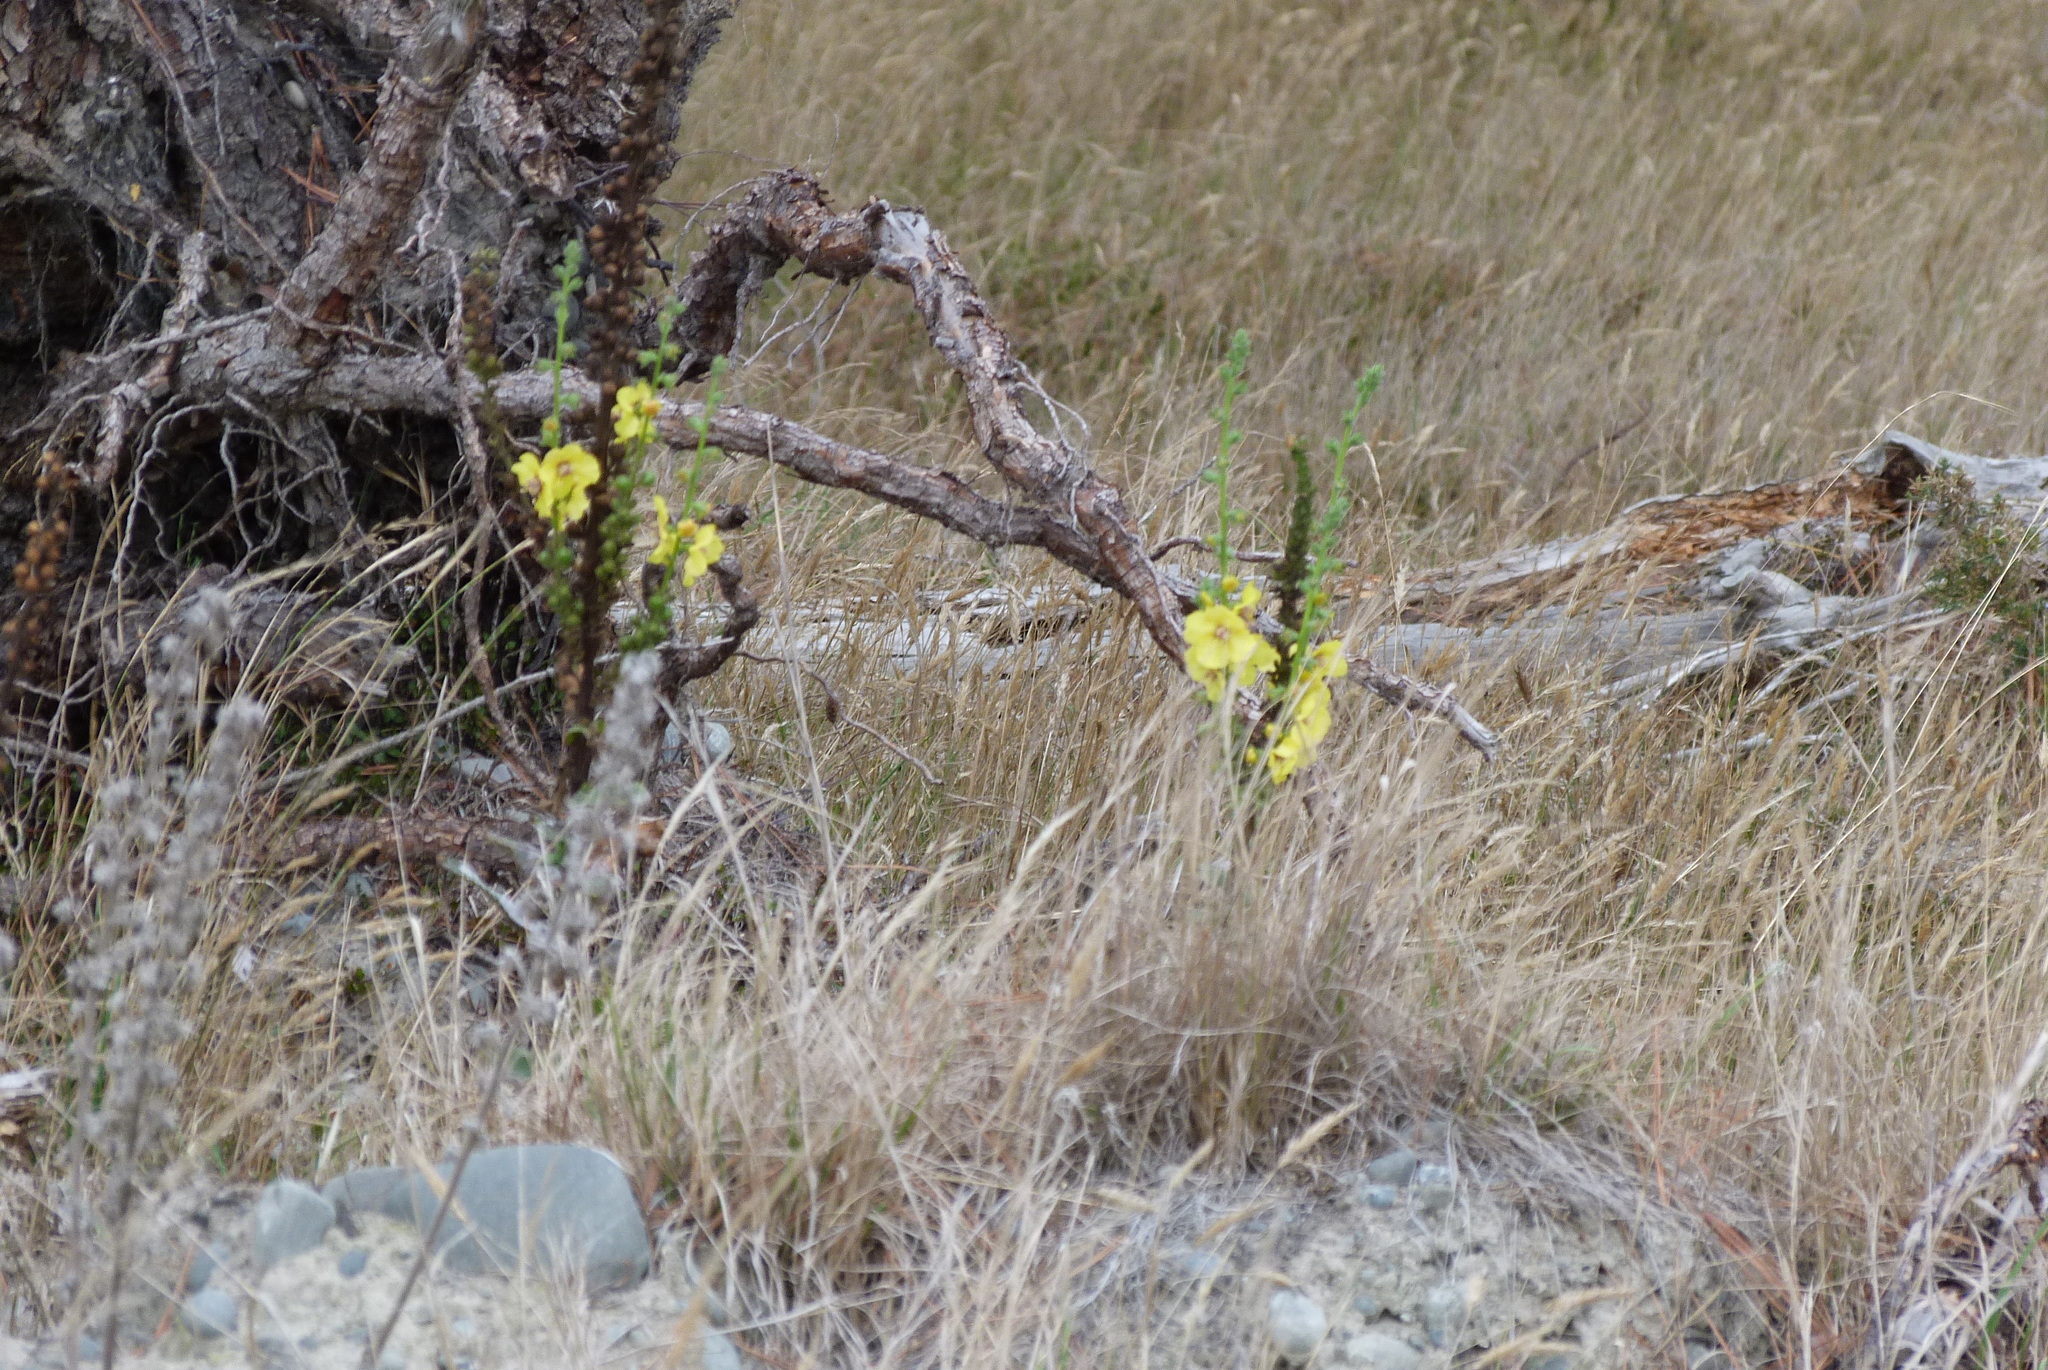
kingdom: Plantae
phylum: Tracheophyta
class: Magnoliopsida
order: Lamiales
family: Scrophulariaceae
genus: Verbascum
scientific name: Verbascum virgatum
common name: Twiggy mullein
